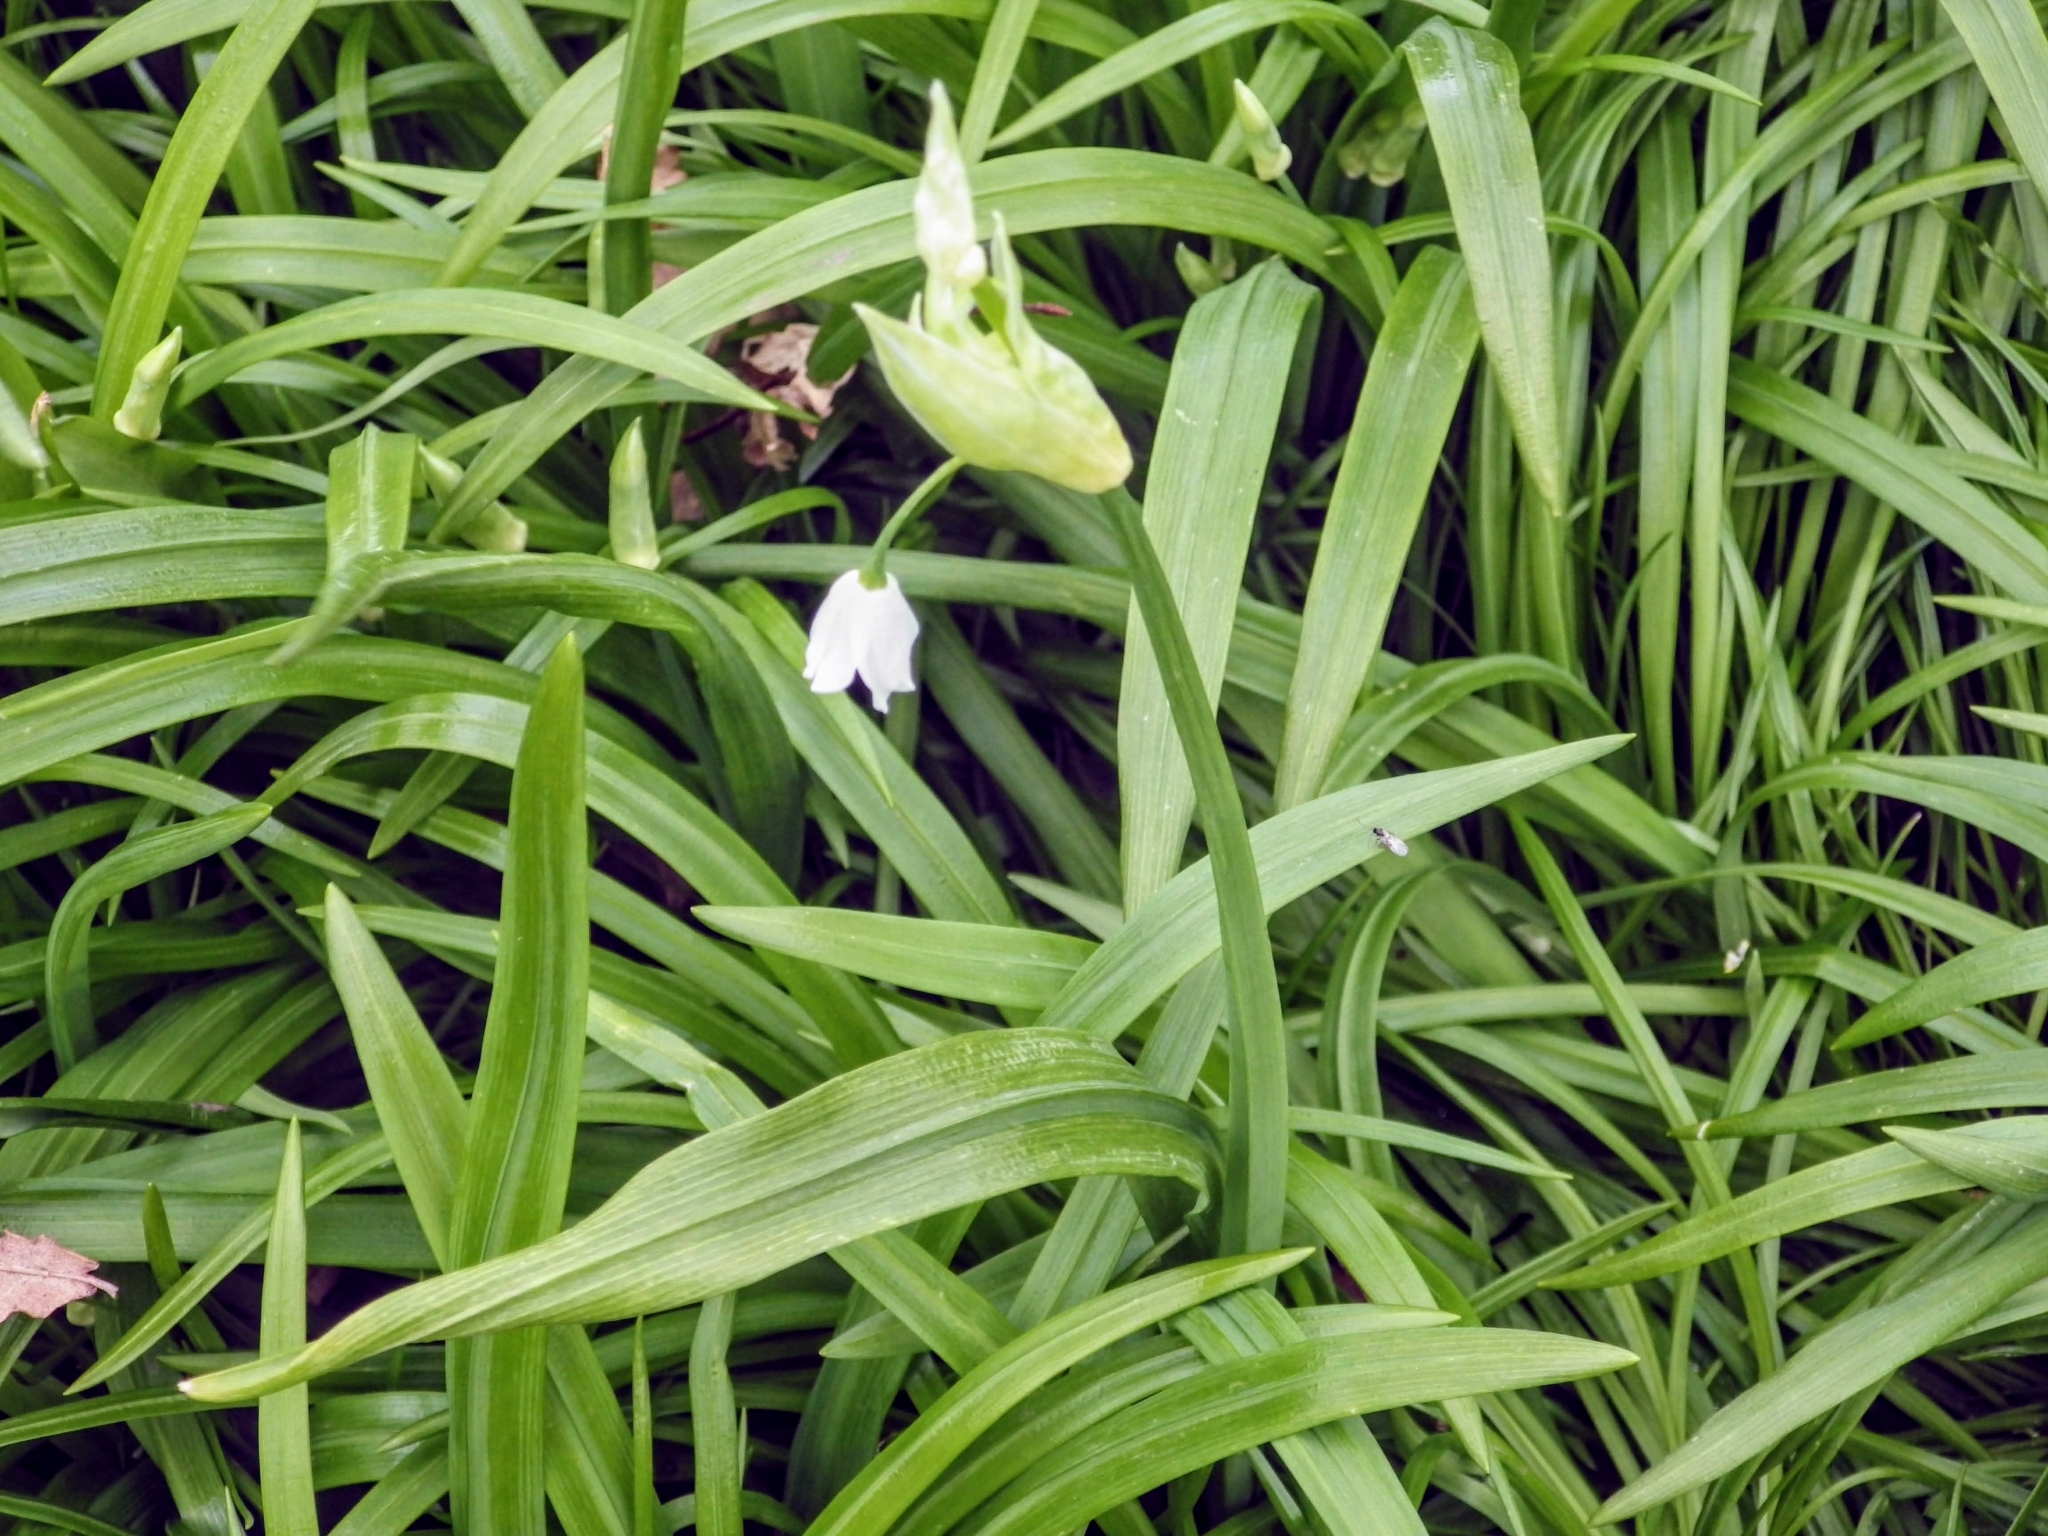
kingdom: Plantae
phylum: Tracheophyta
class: Liliopsida
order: Asparagales
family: Amaryllidaceae
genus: Allium
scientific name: Allium paradoxum
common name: Few-flowered garlic
